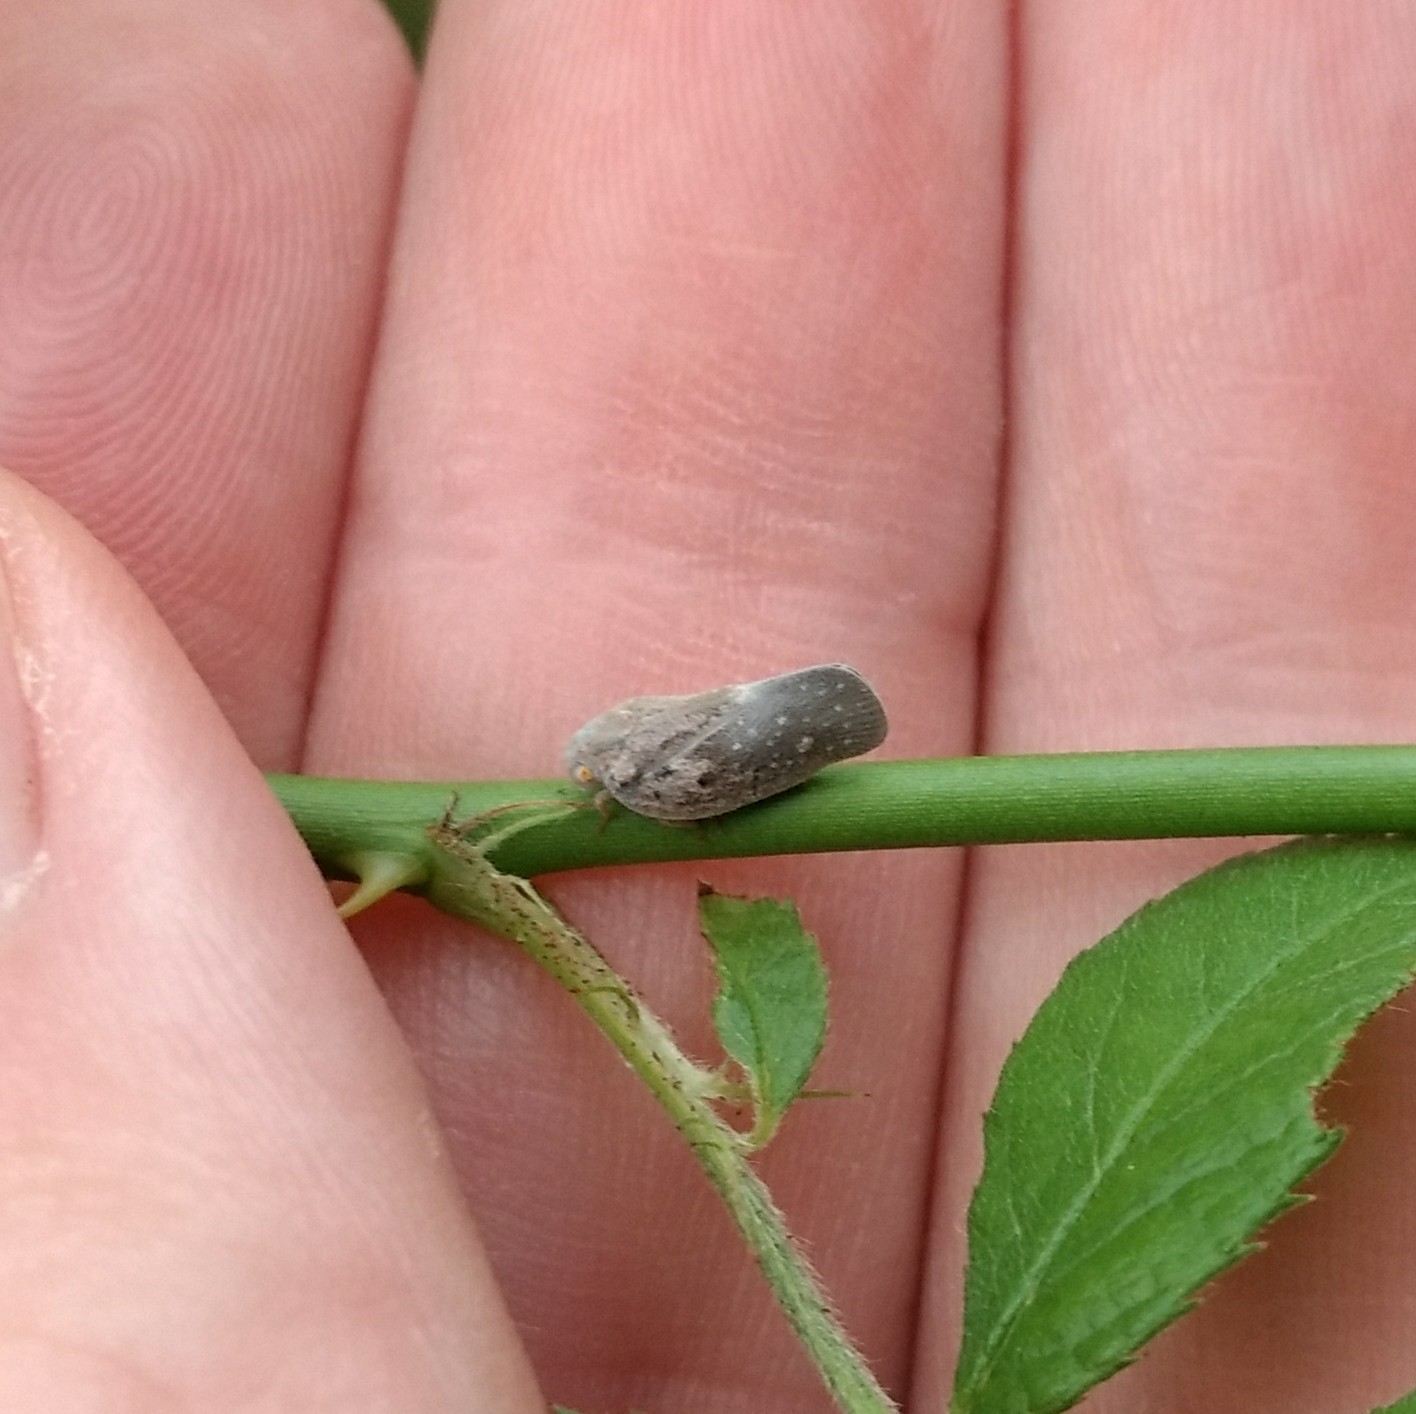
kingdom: Animalia
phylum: Arthropoda
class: Insecta
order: Hemiptera
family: Flatidae
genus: Metcalfa
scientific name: Metcalfa pruinosa
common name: Citrus flatid planthopper
